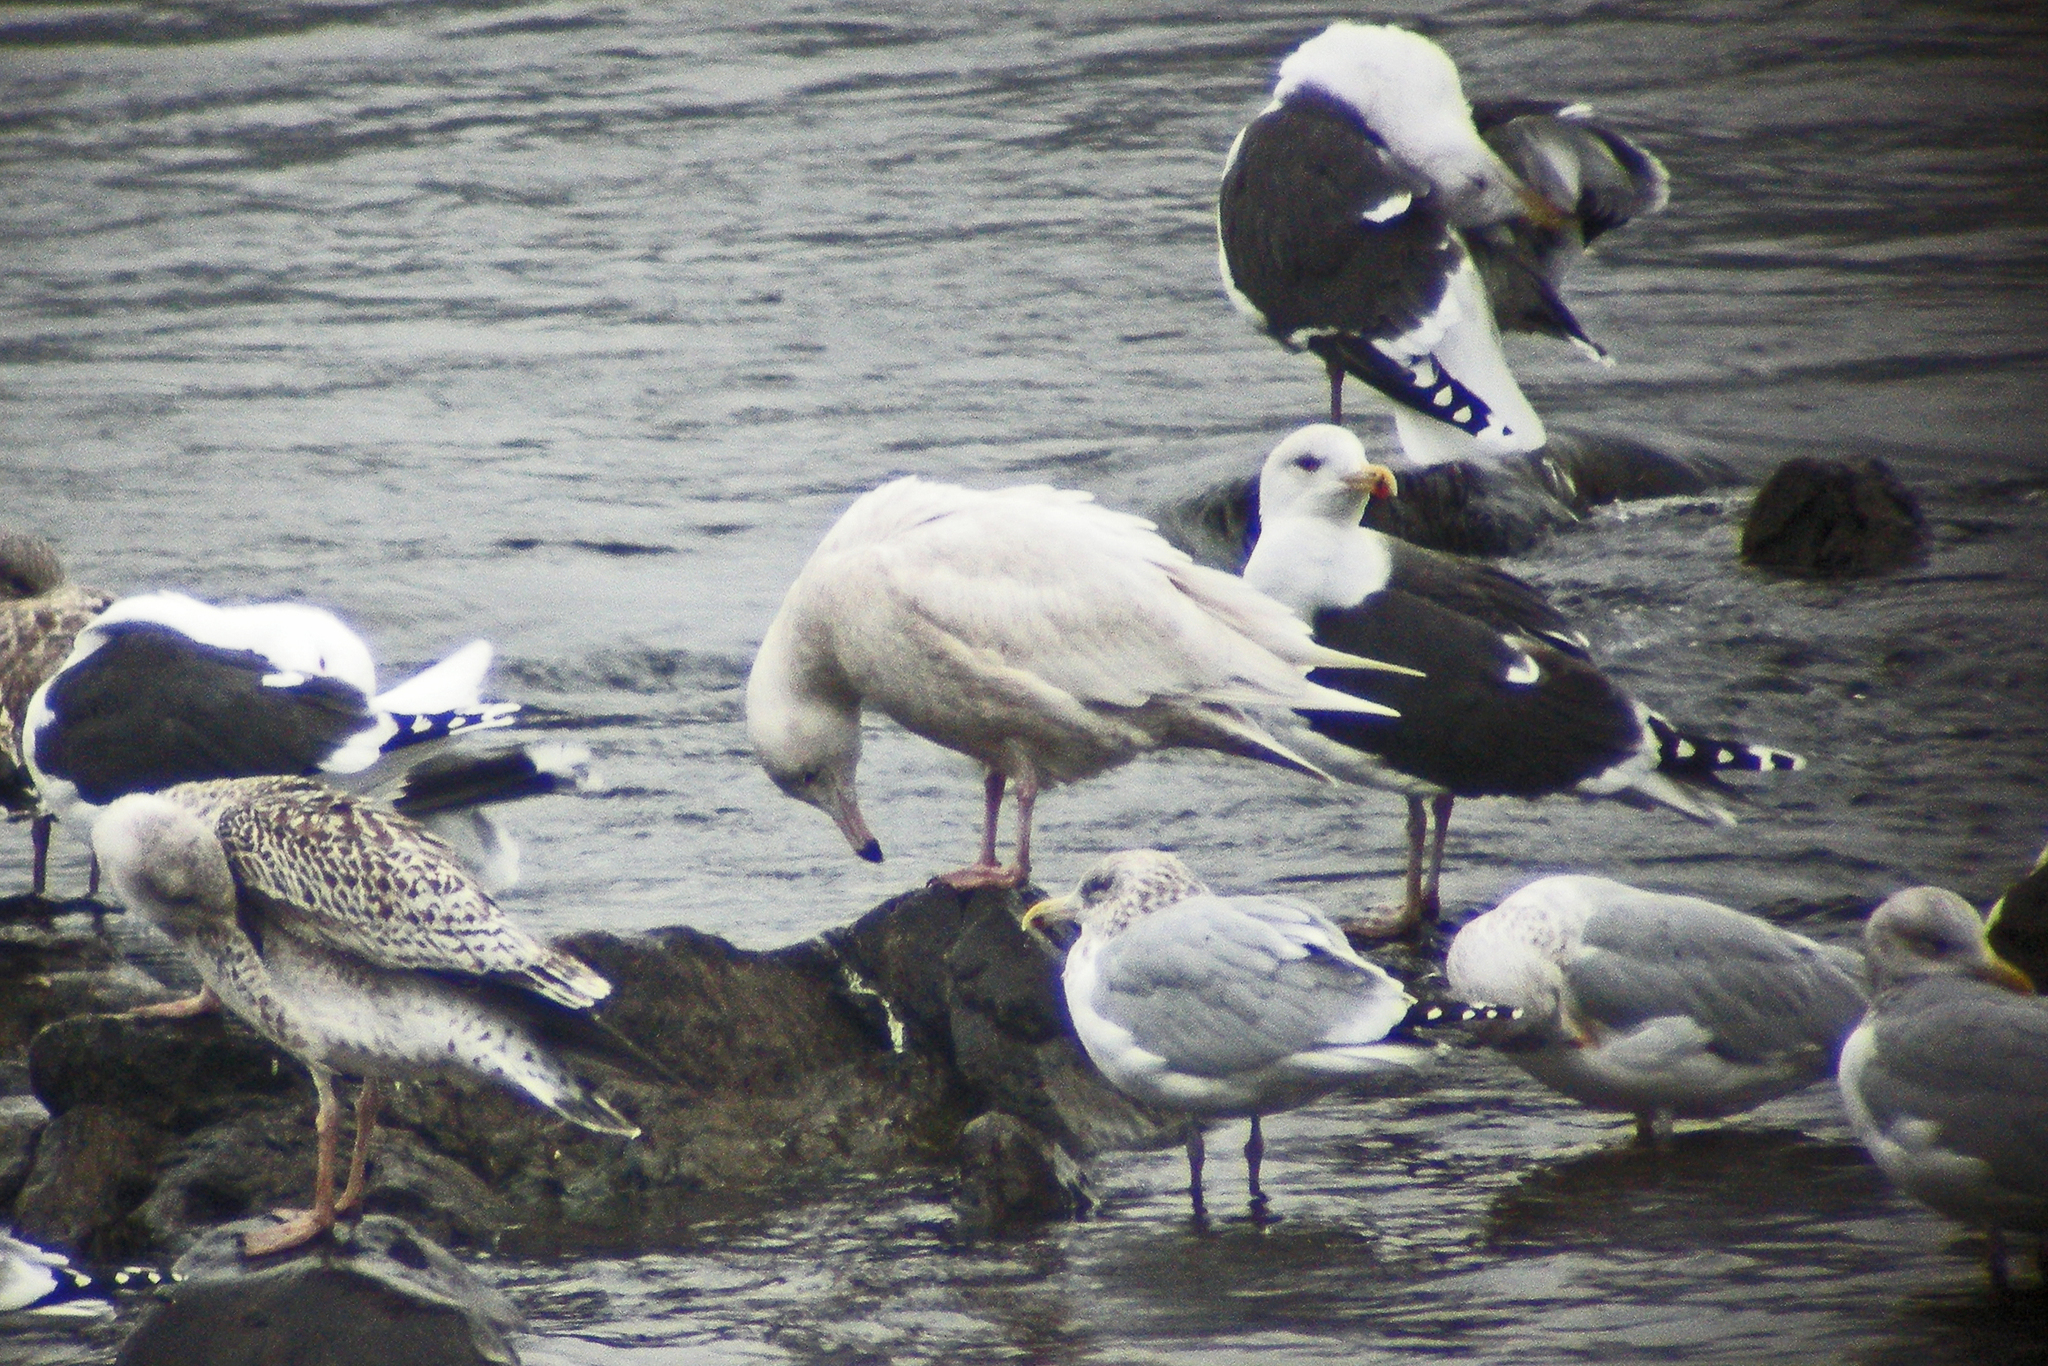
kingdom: Animalia
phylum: Chordata
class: Aves
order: Charadriiformes
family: Laridae
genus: Larus
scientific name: Larus hyperboreus
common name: Glaucous gull
